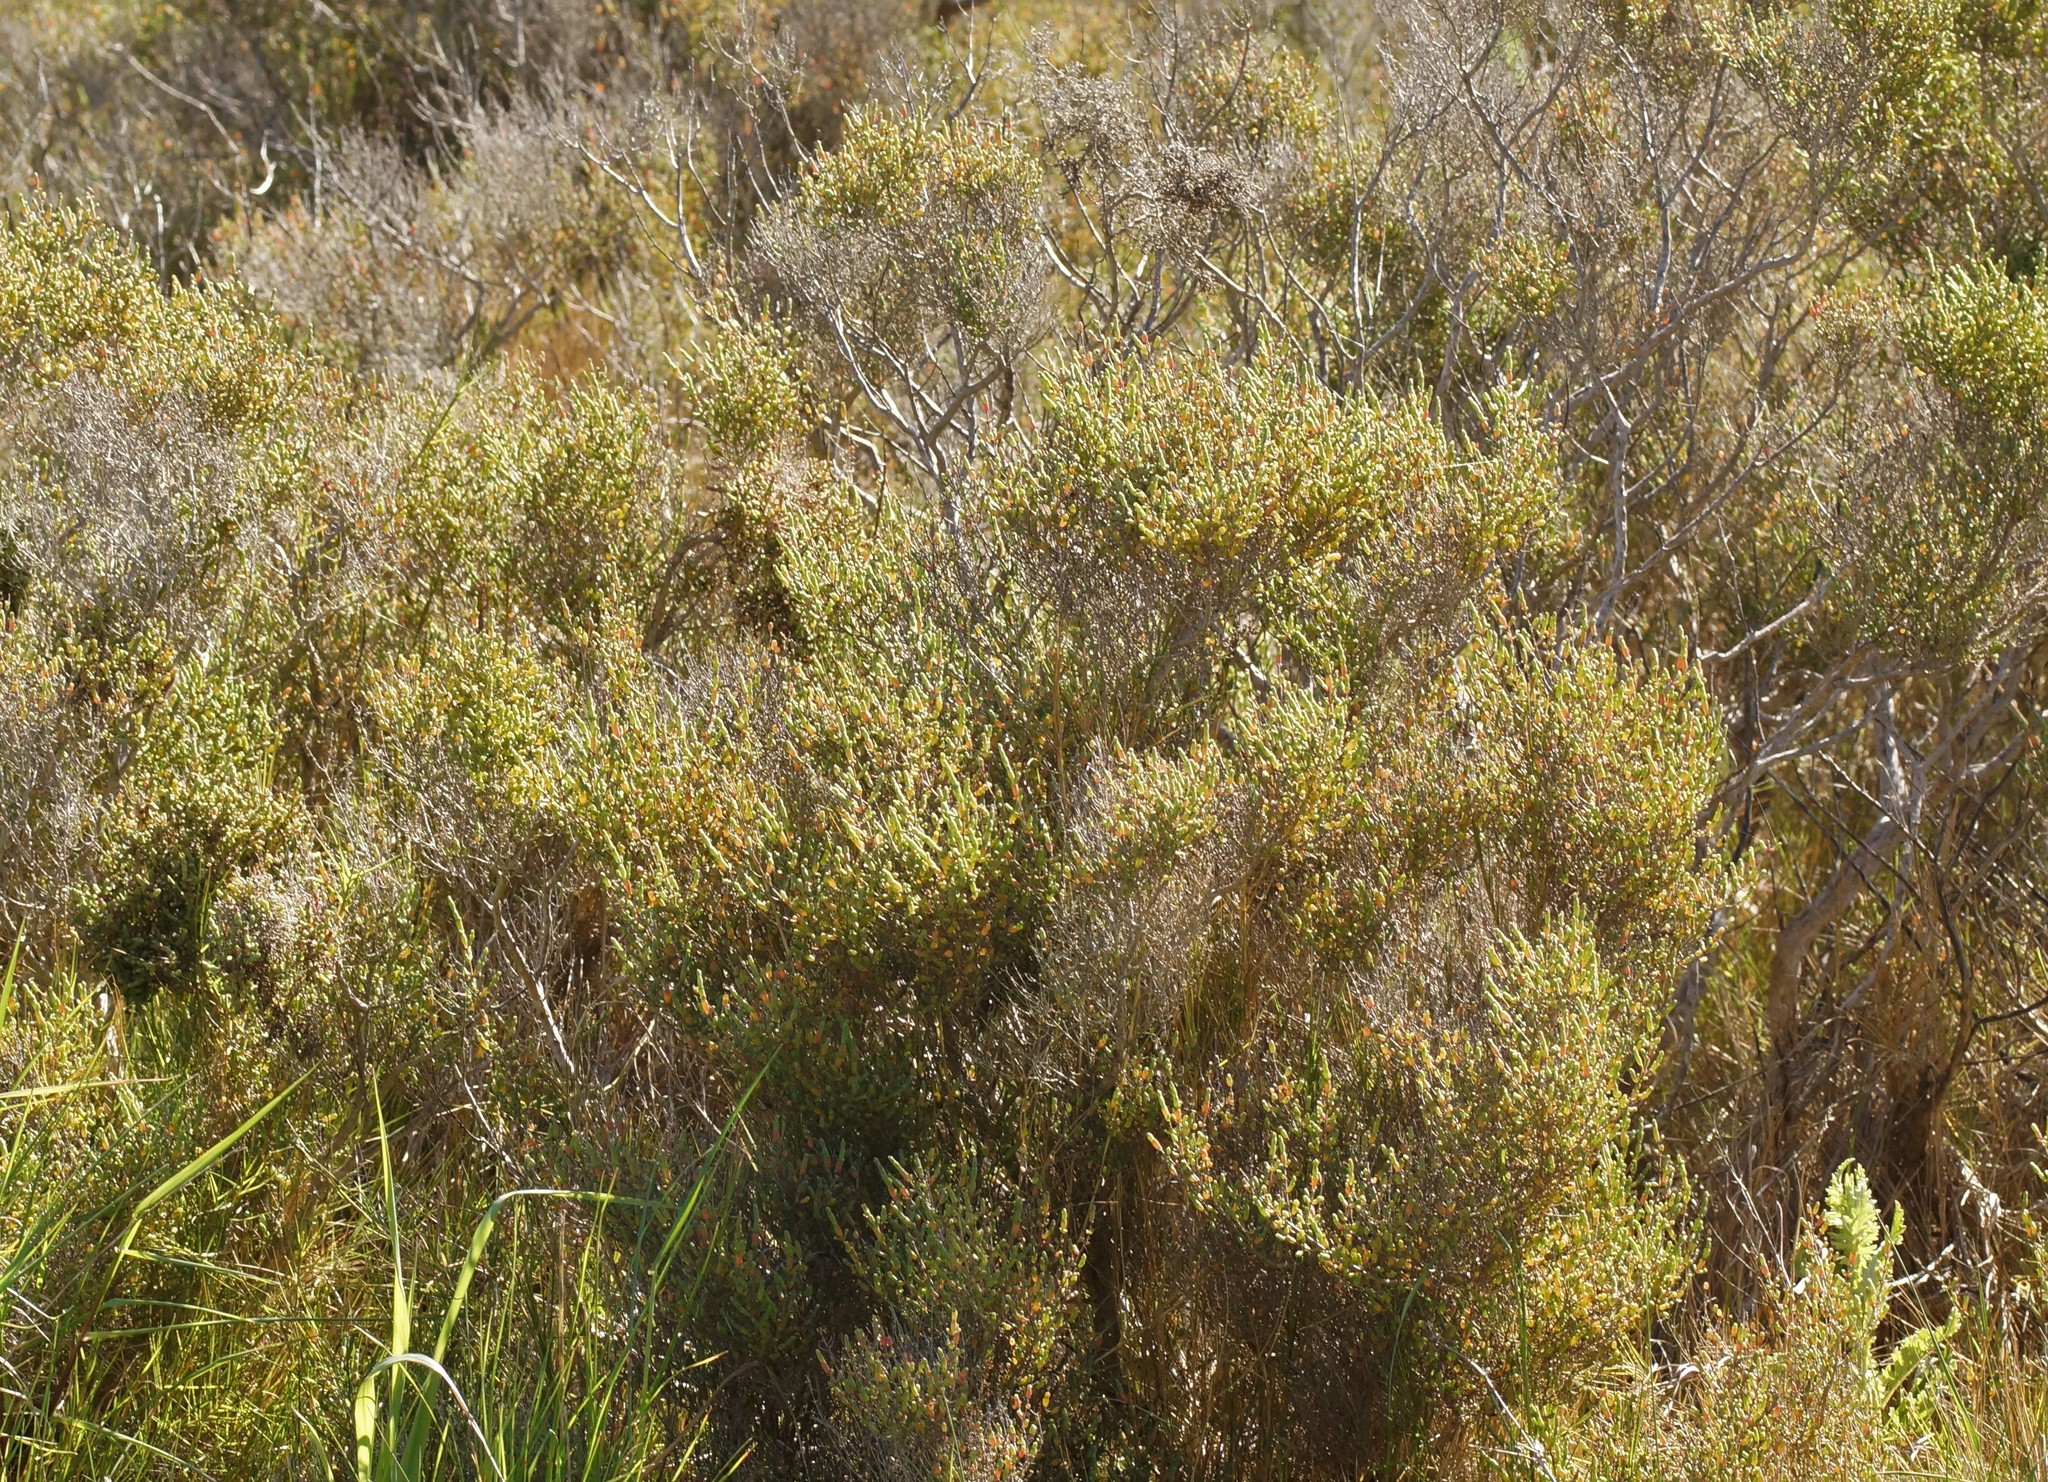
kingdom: Plantae
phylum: Tracheophyta
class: Magnoliopsida
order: Caryophyllales
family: Amaranthaceae
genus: Tecticornia
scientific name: Tecticornia arbuscula
